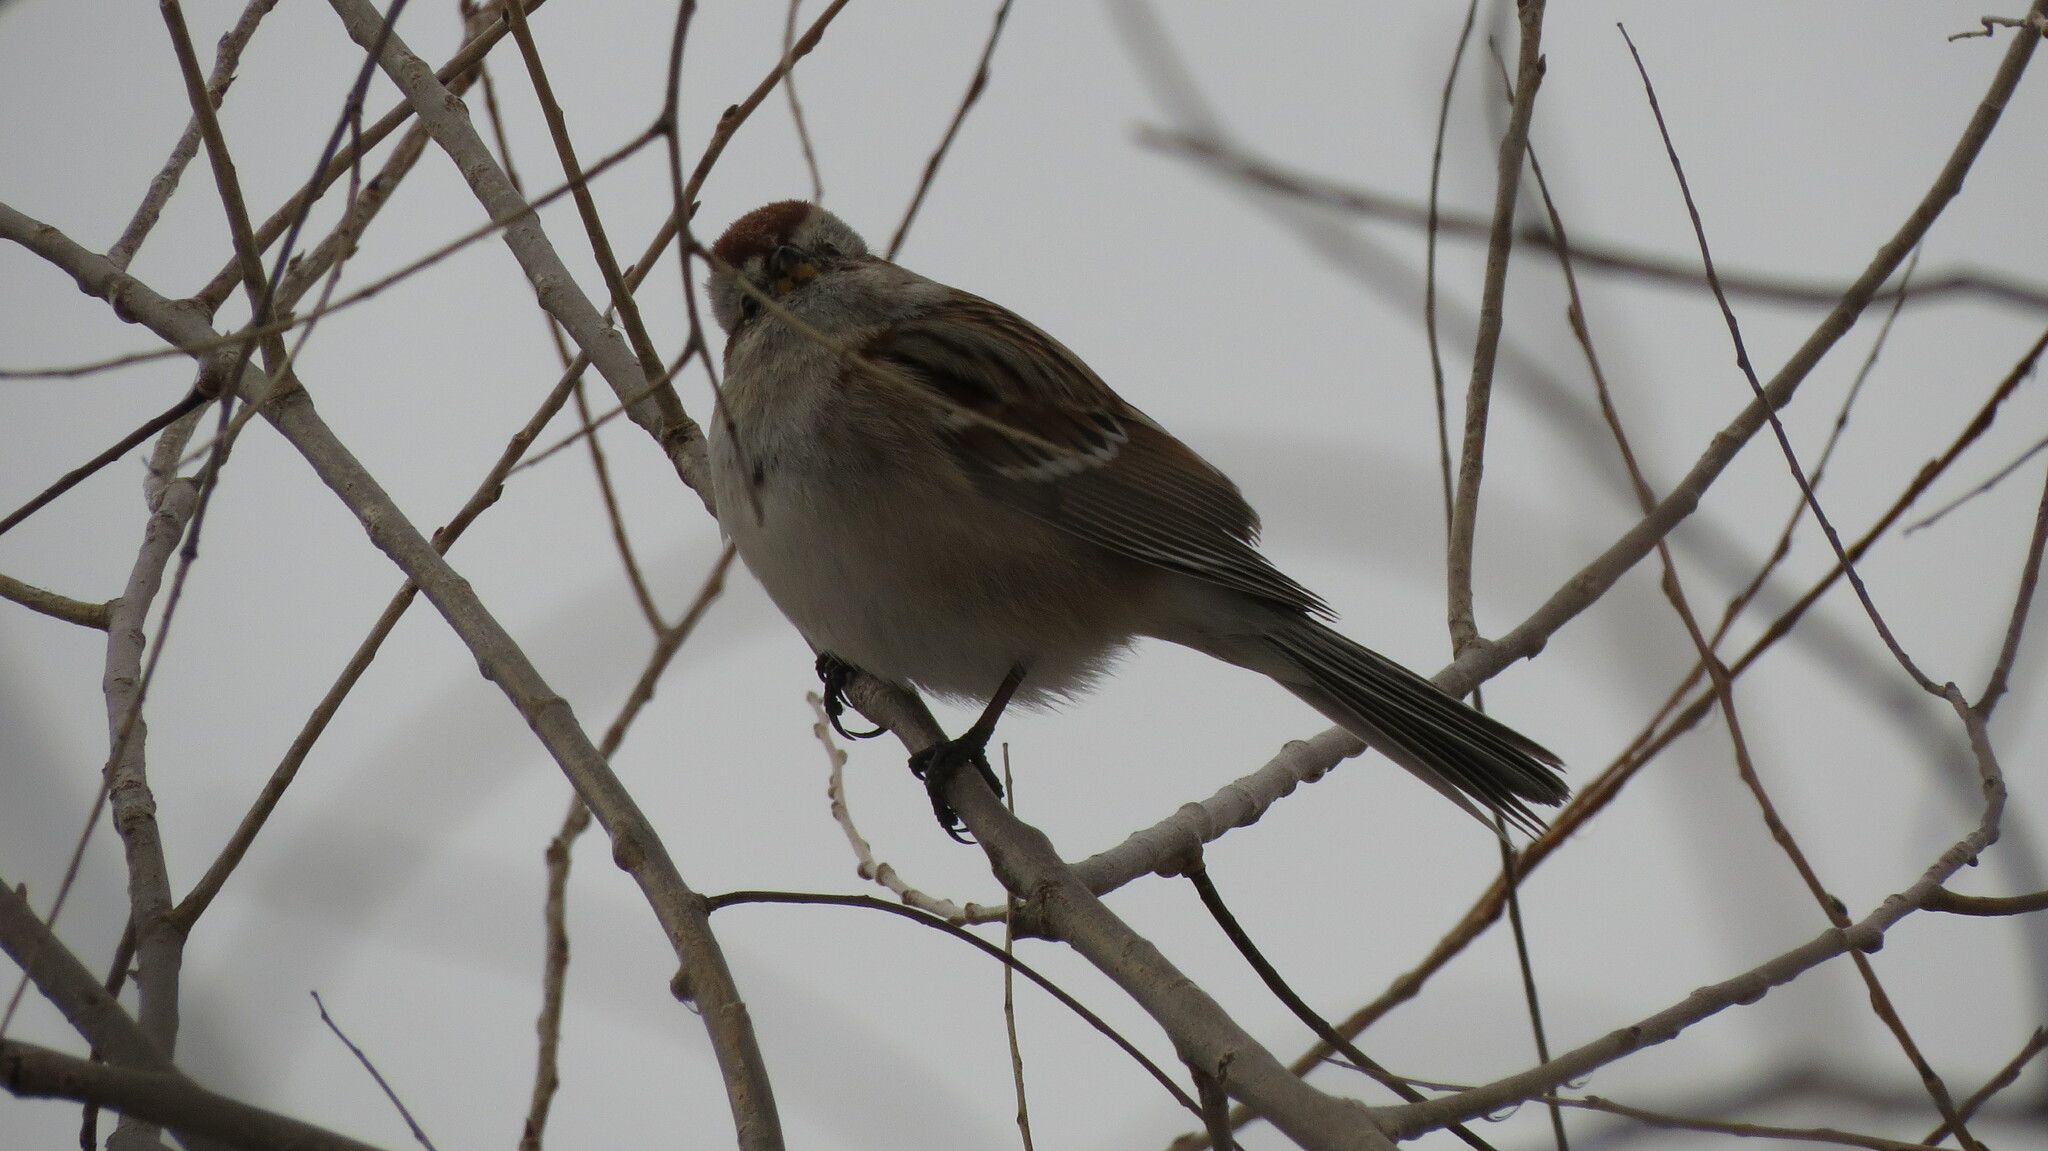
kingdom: Animalia
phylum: Chordata
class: Aves
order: Passeriformes
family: Passerellidae
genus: Spizelloides
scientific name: Spizelloides arborea
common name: American tree sparrow
